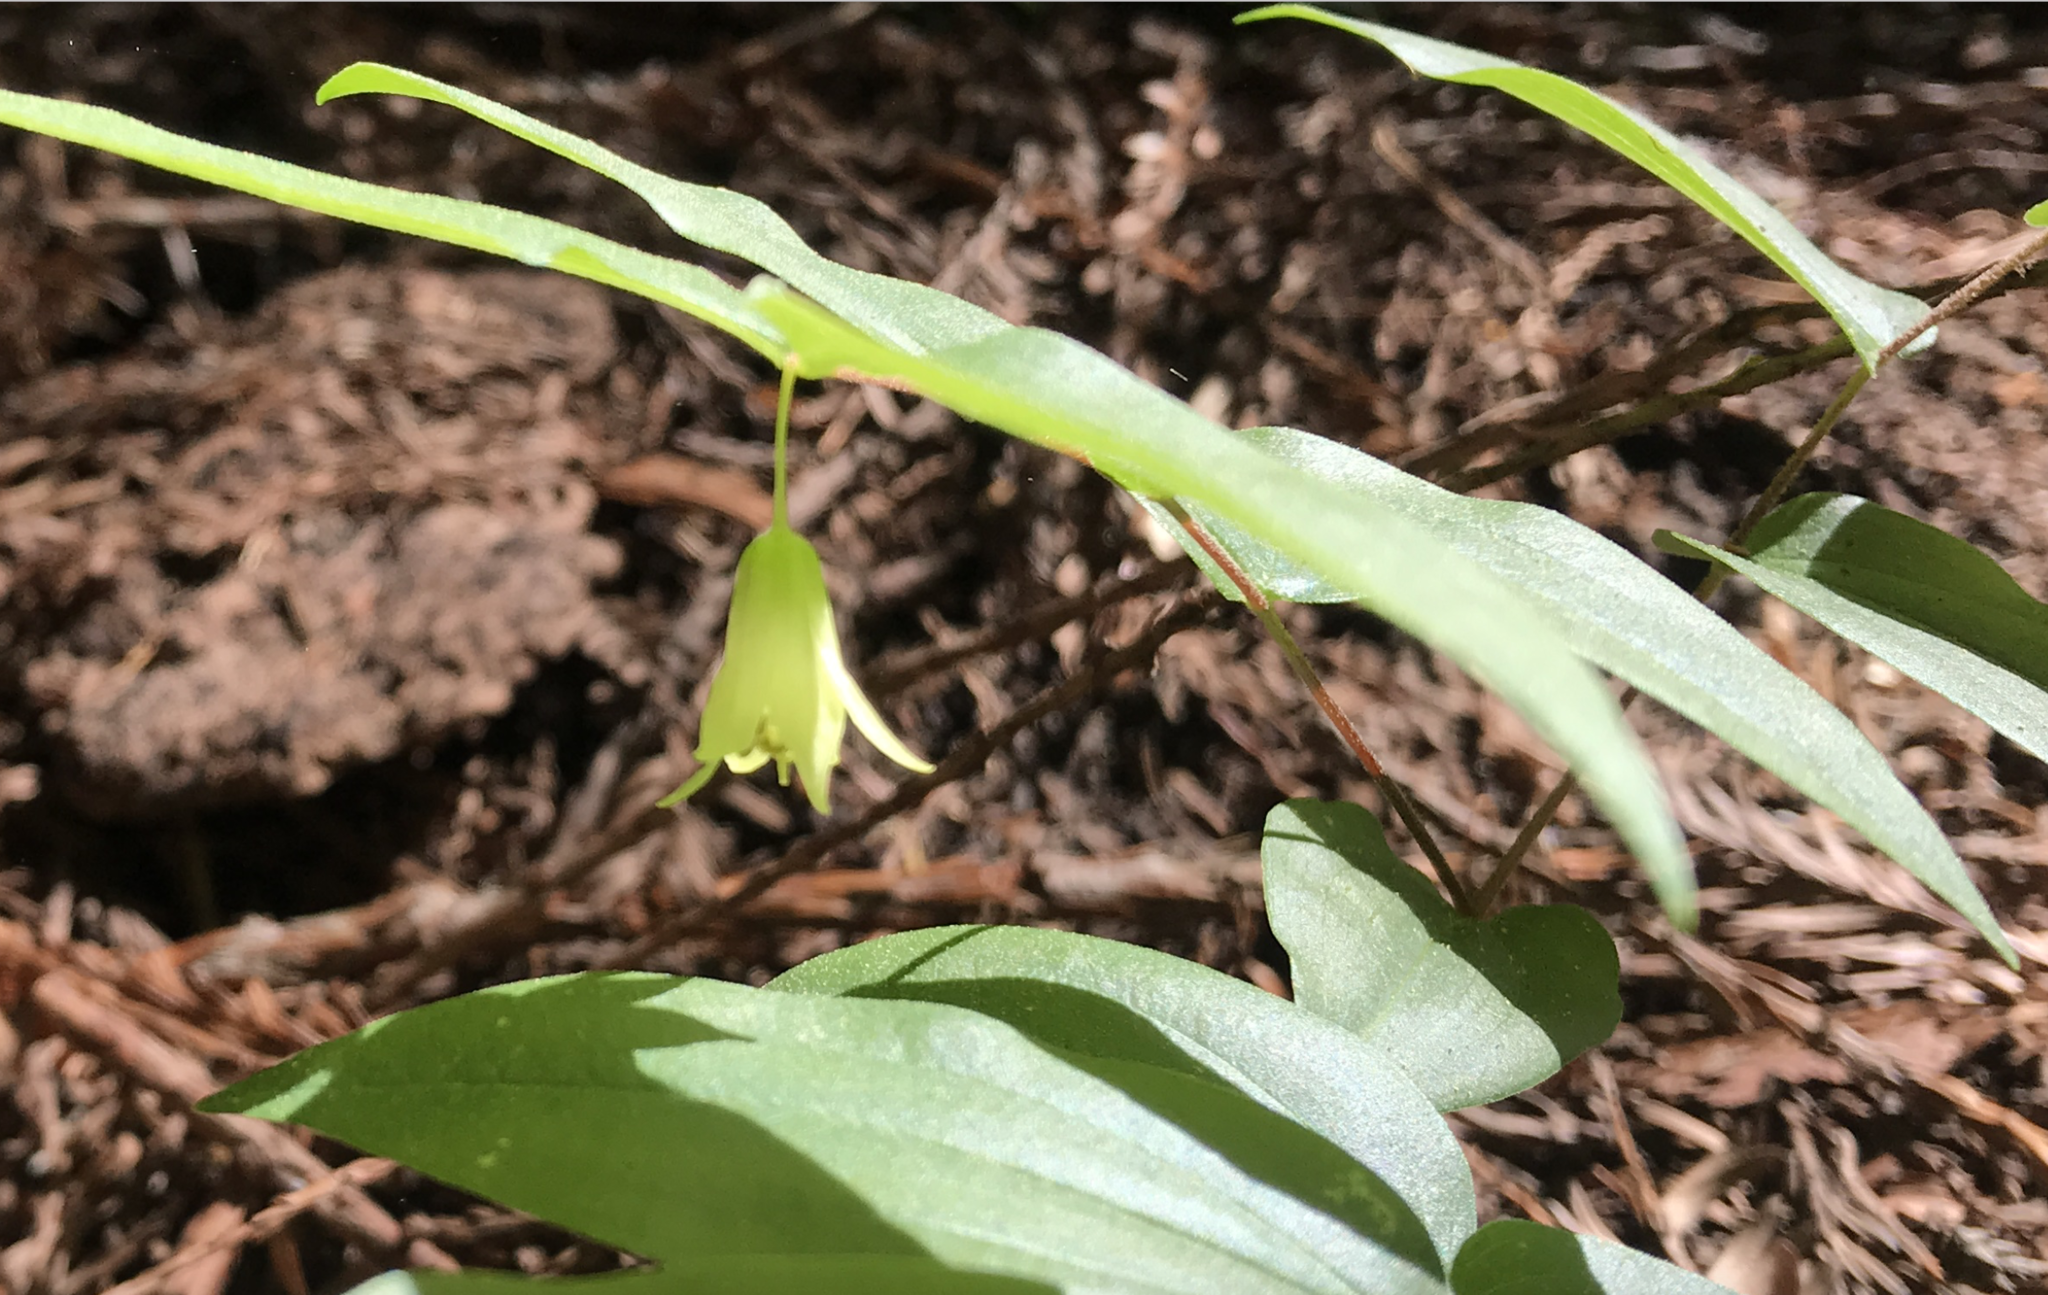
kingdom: Plantae
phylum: Tracheophyta
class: Liliopsida
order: Liliales
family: Liliaceae
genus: Prosartes
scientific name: Prosartes hookeri
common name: Fairy-bells
